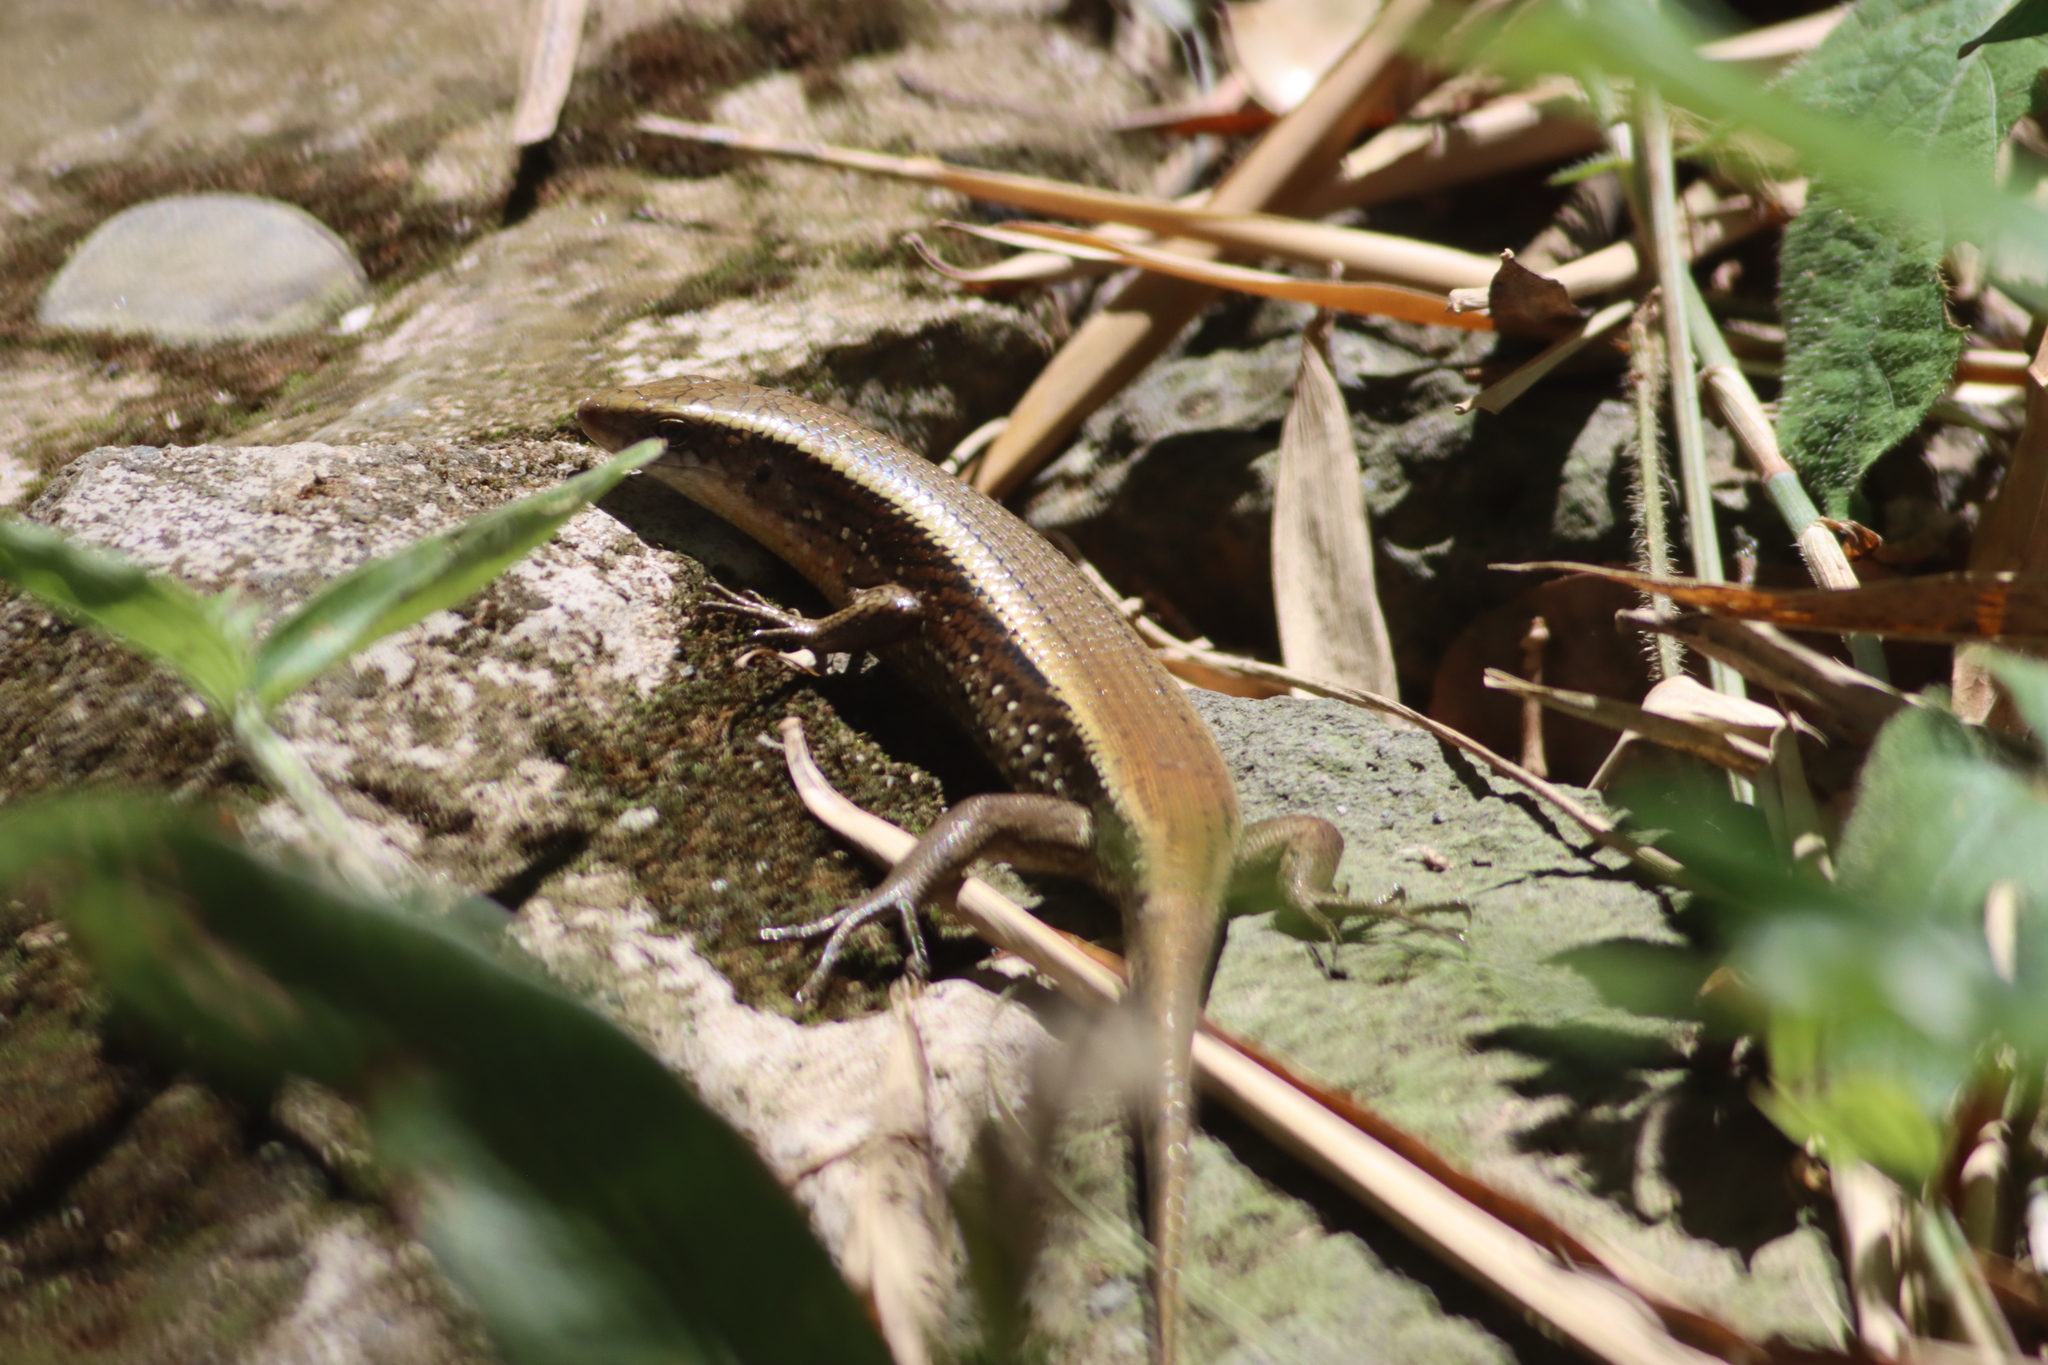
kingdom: Animalia
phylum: Chordata
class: Squamata
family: Scincidae
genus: Eutropis
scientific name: Eutropis multifasciata
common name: Common mabuya
